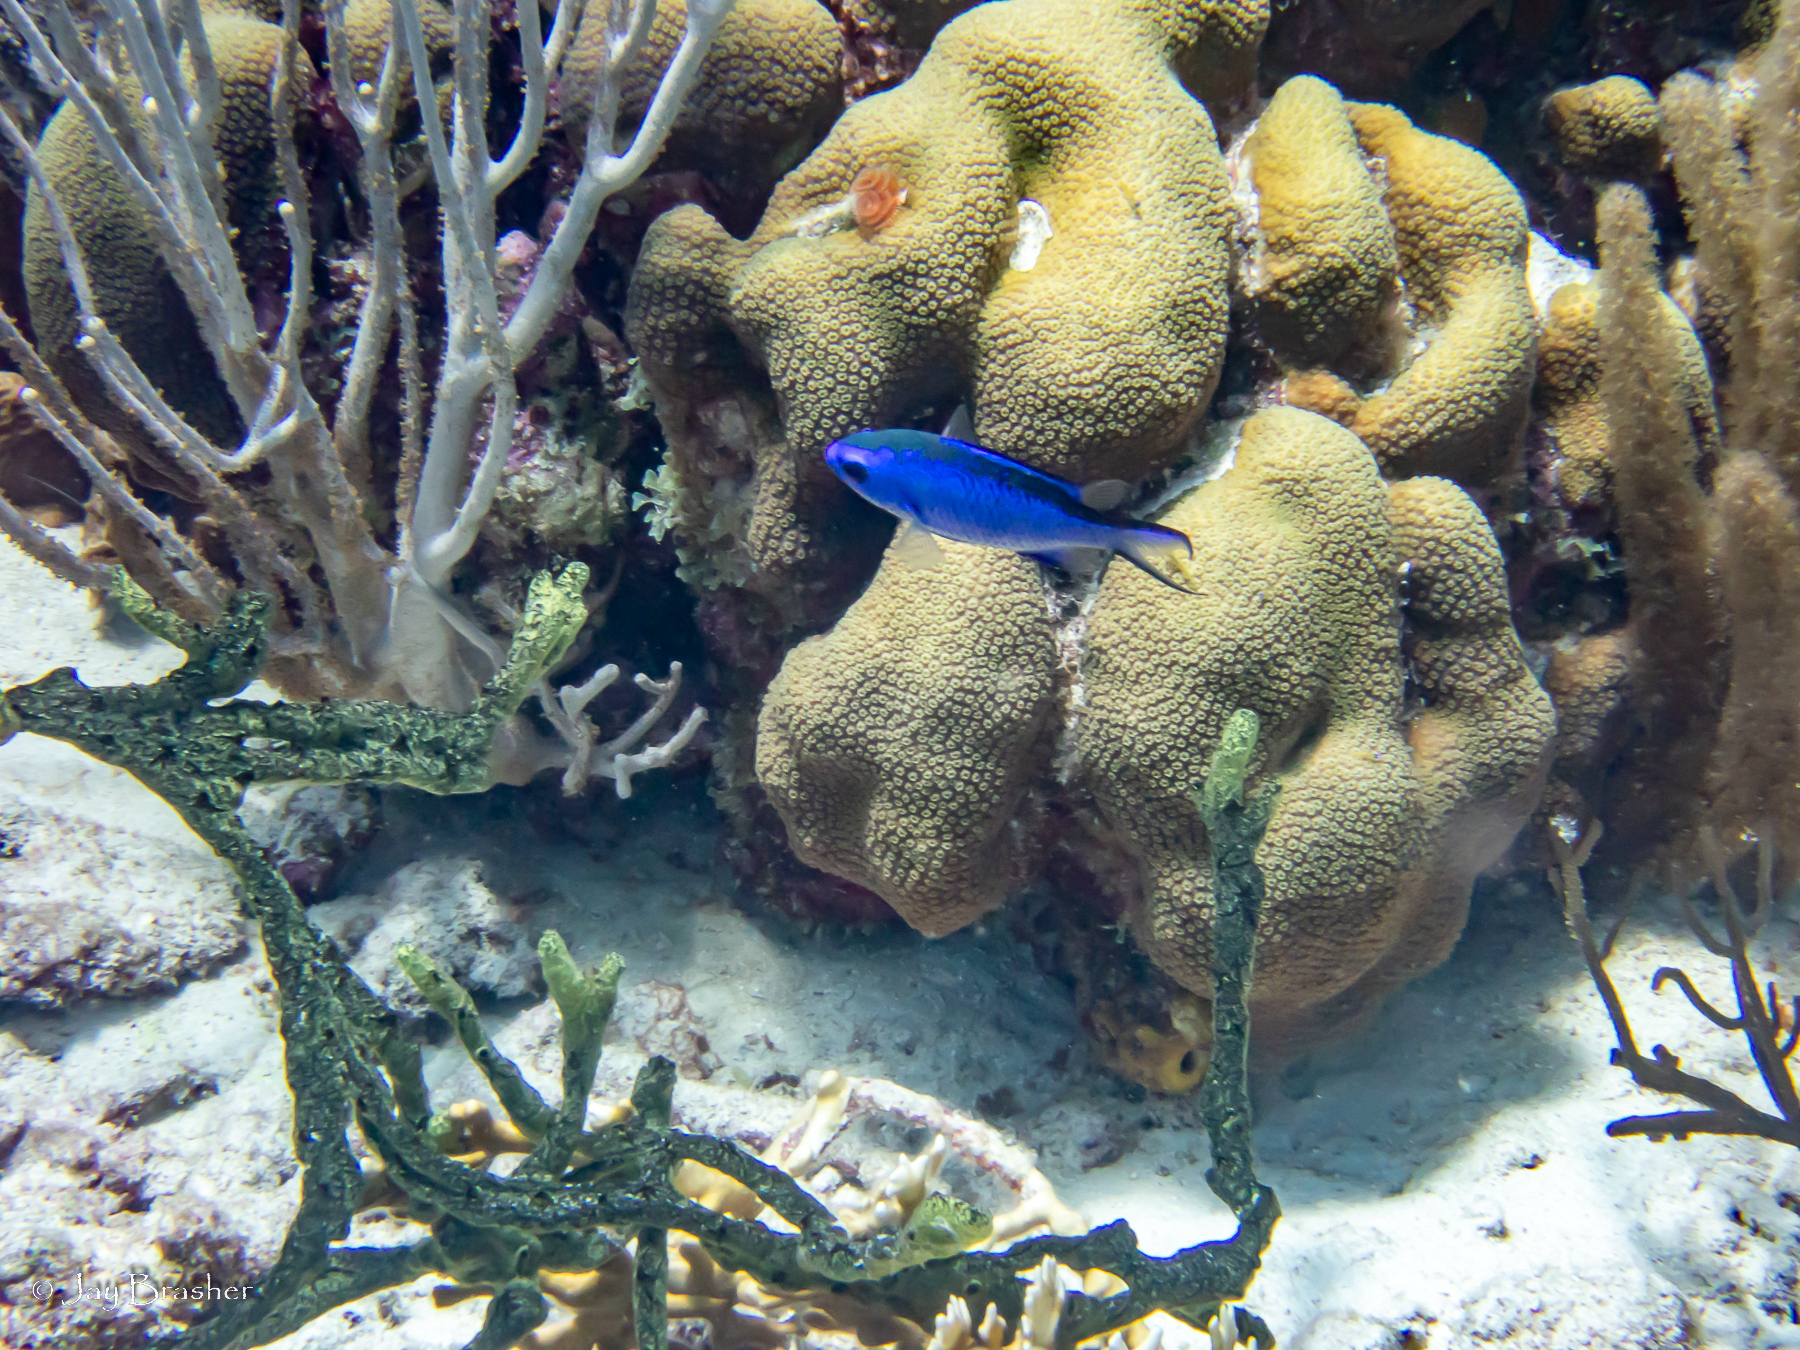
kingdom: Animalia
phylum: Porifera
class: Demospongiae
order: Poecilosclerida
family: Iotrochotidae
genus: Iotrochota
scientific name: Iotrochota birotulata
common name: Purple bleeding sponge
